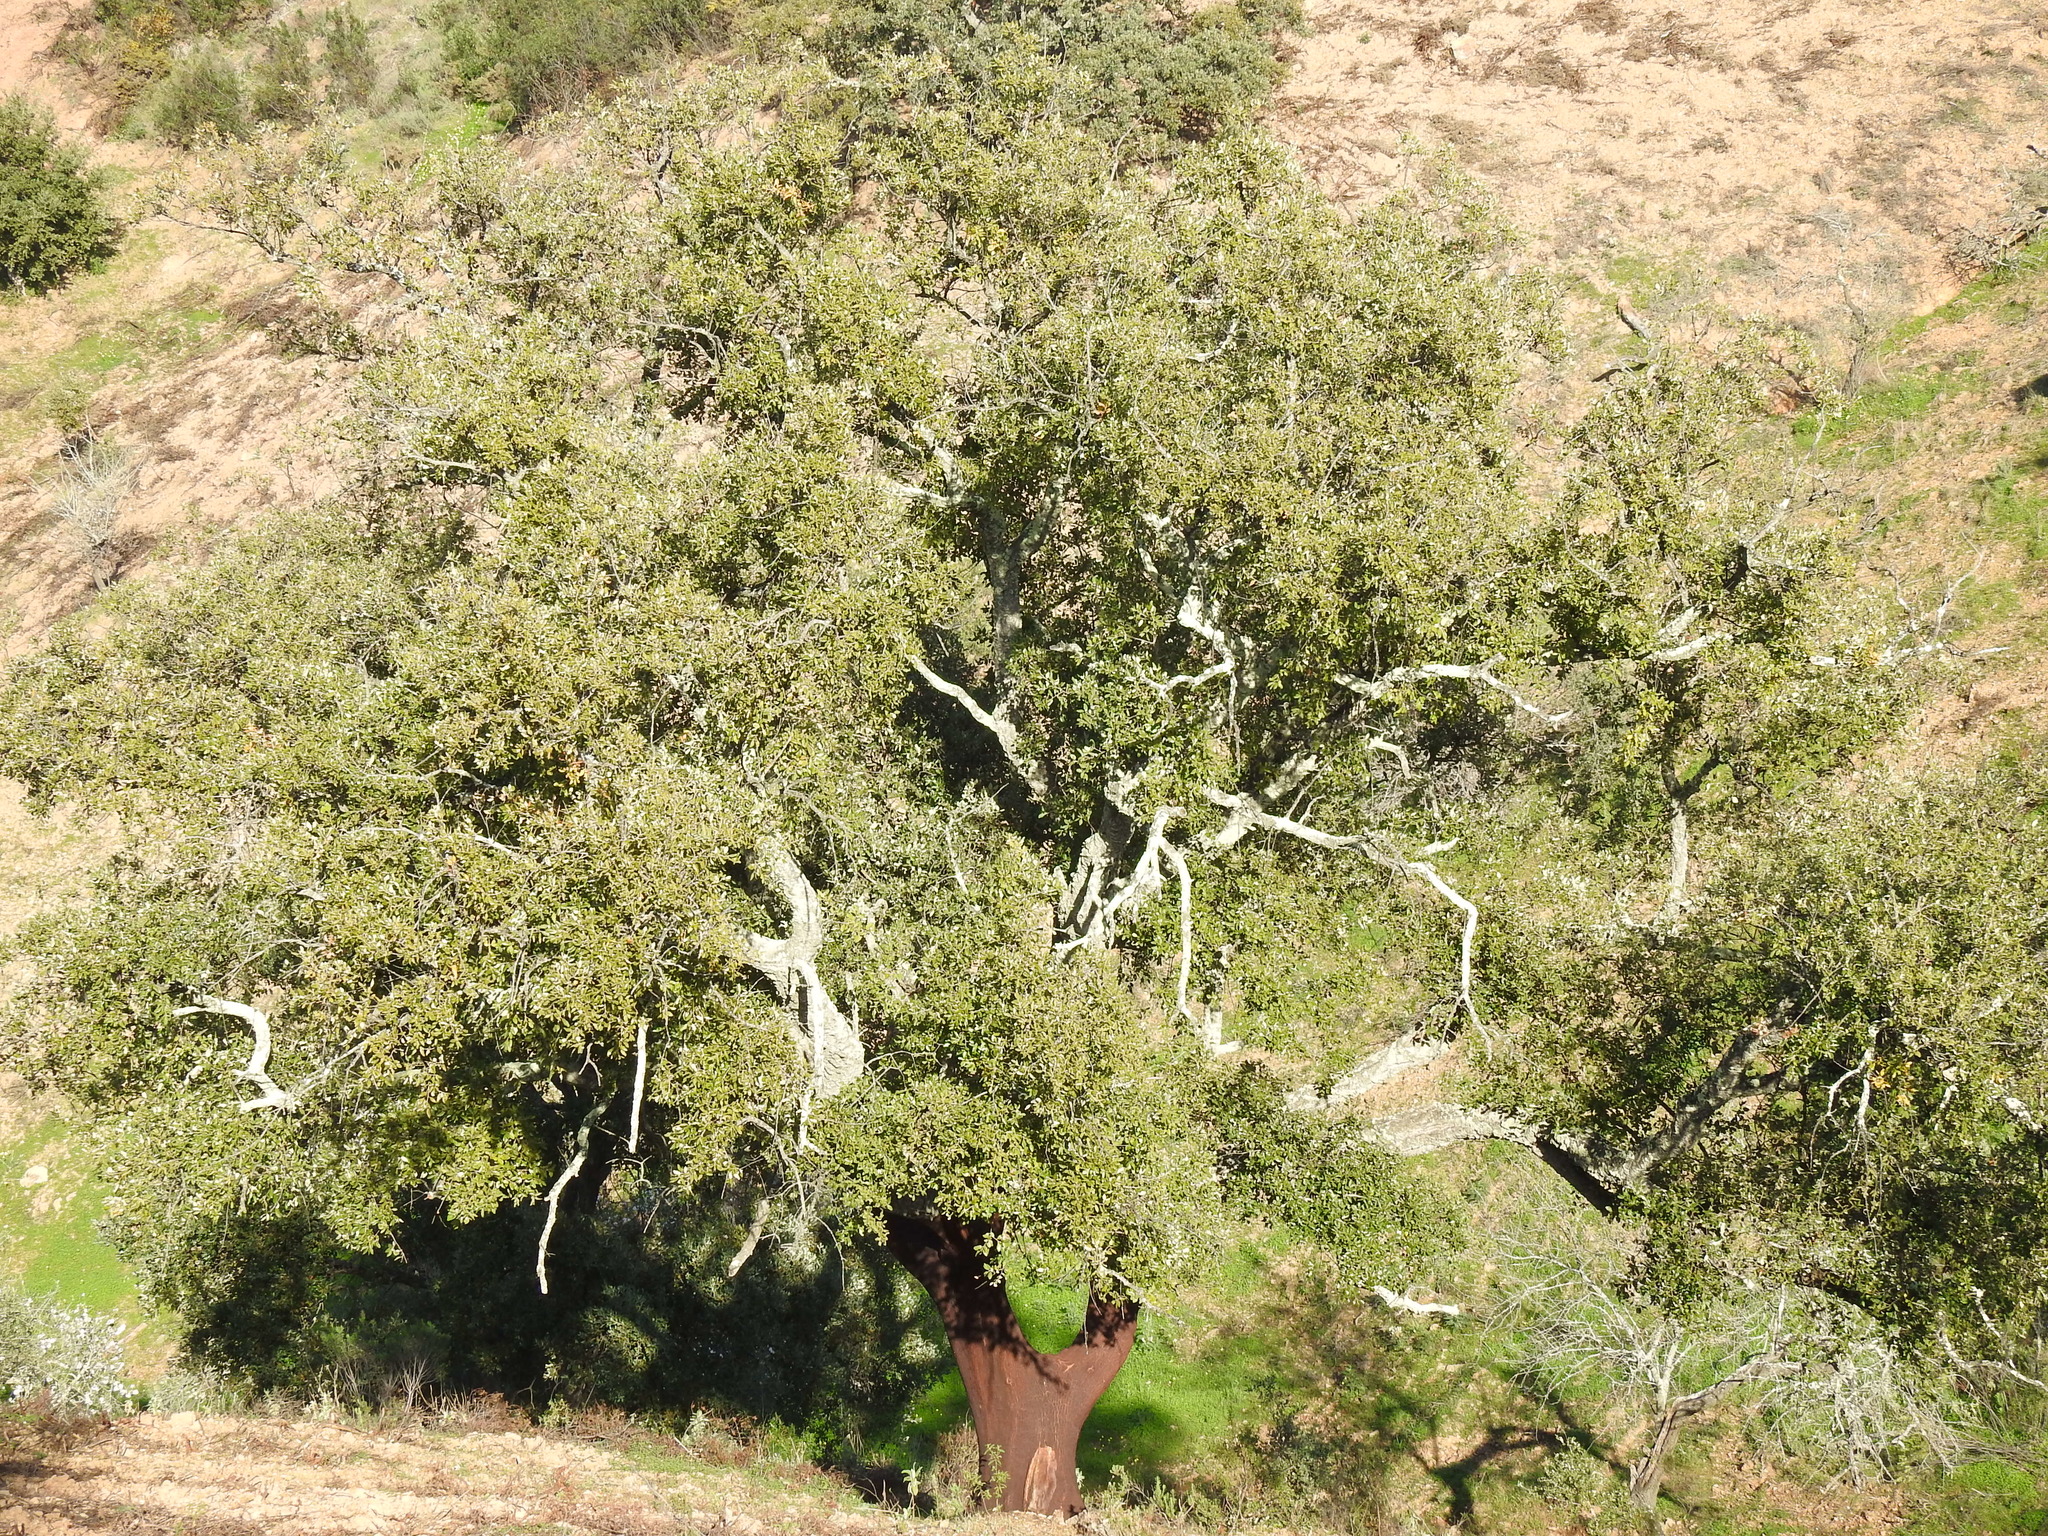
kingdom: Plantae
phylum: Tracheophyta
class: Magnoliopsida
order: Fagales
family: Fagaceae
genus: Quercus
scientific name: Quercus suber
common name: Cork oak
